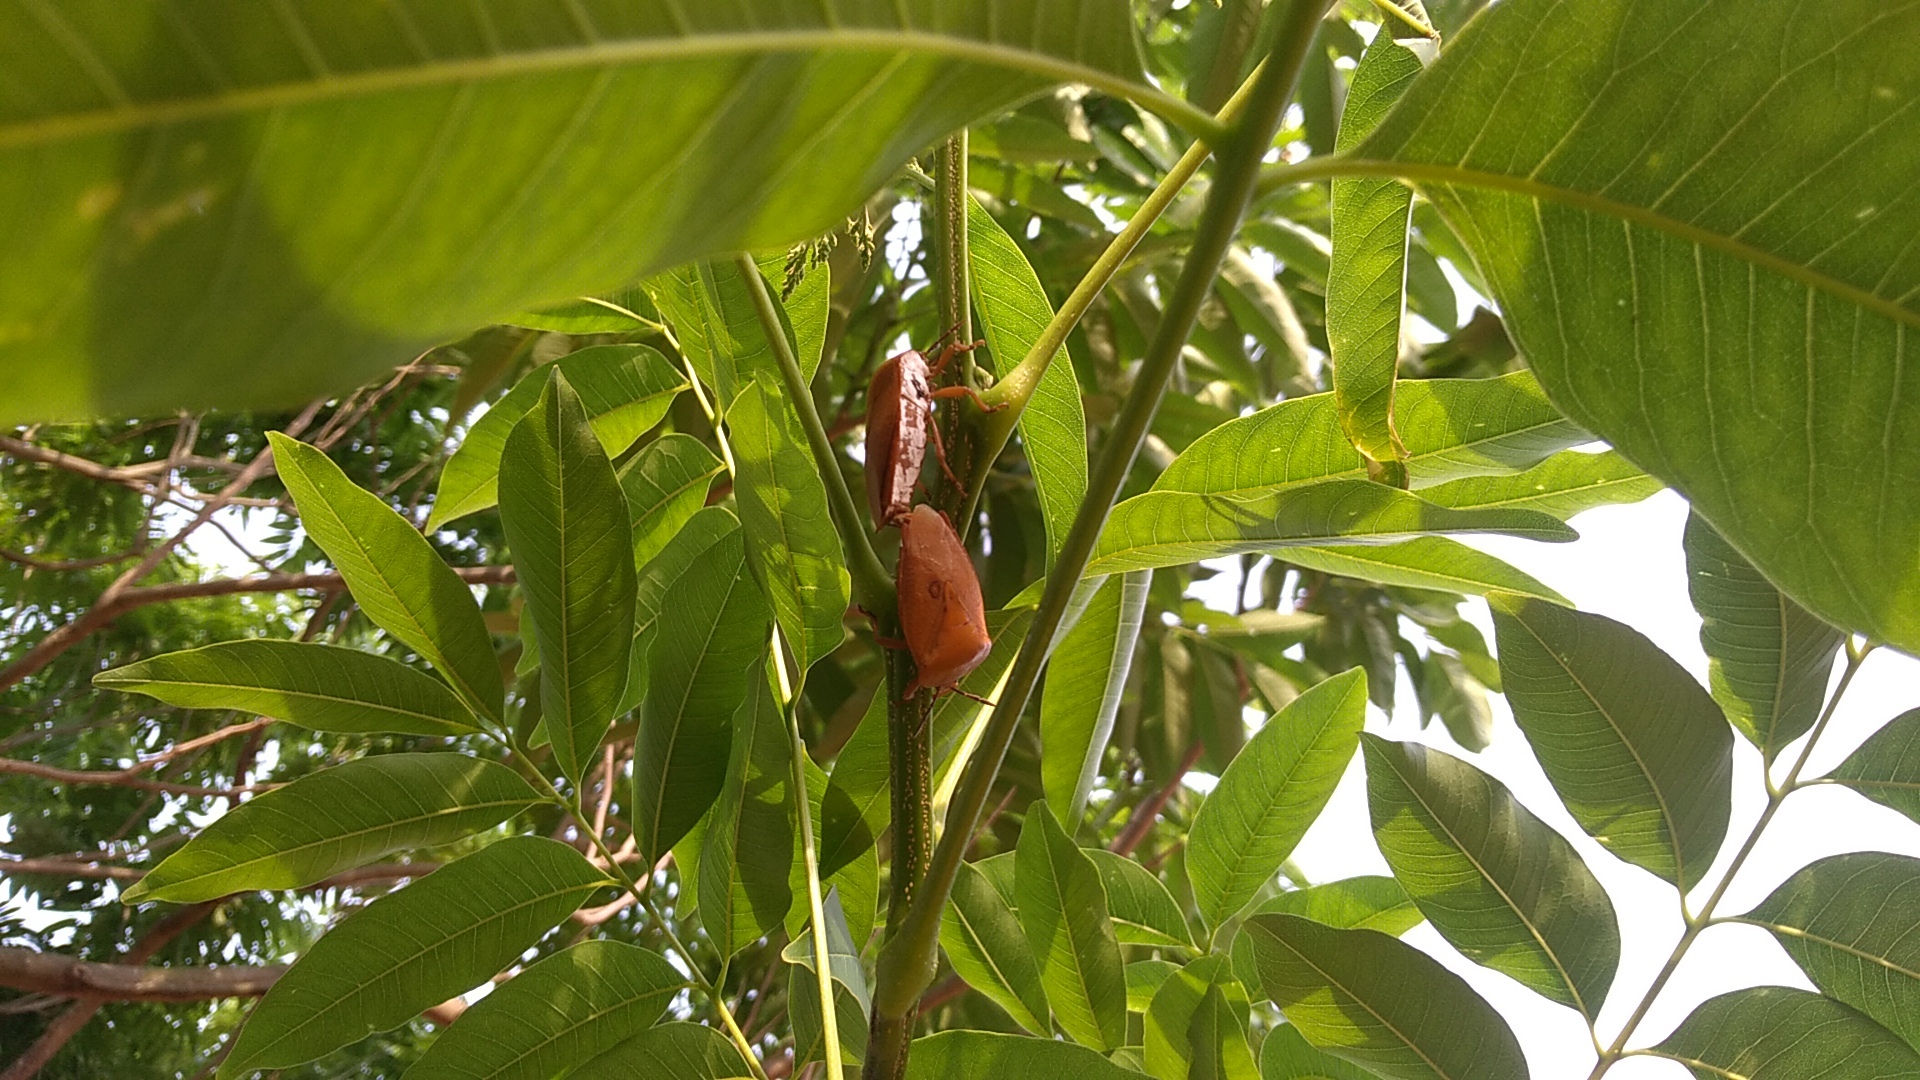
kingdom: Animalia
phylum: Arthropoda
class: Insecta
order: Hemiptera
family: Tessaratomidae
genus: Tessaratoma
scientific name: Tessaratoma papillosa
